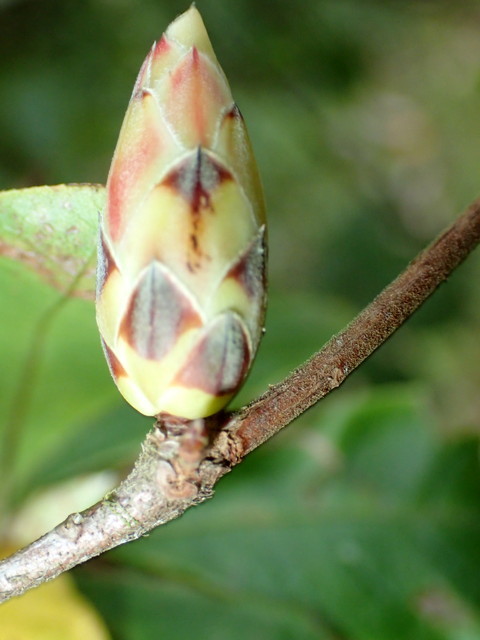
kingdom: Plantae
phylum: Tracheophyta
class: Magnoliopsida
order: Ericales
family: Ericaceae
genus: Rhododendron
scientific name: Rhododendron serrulatum
